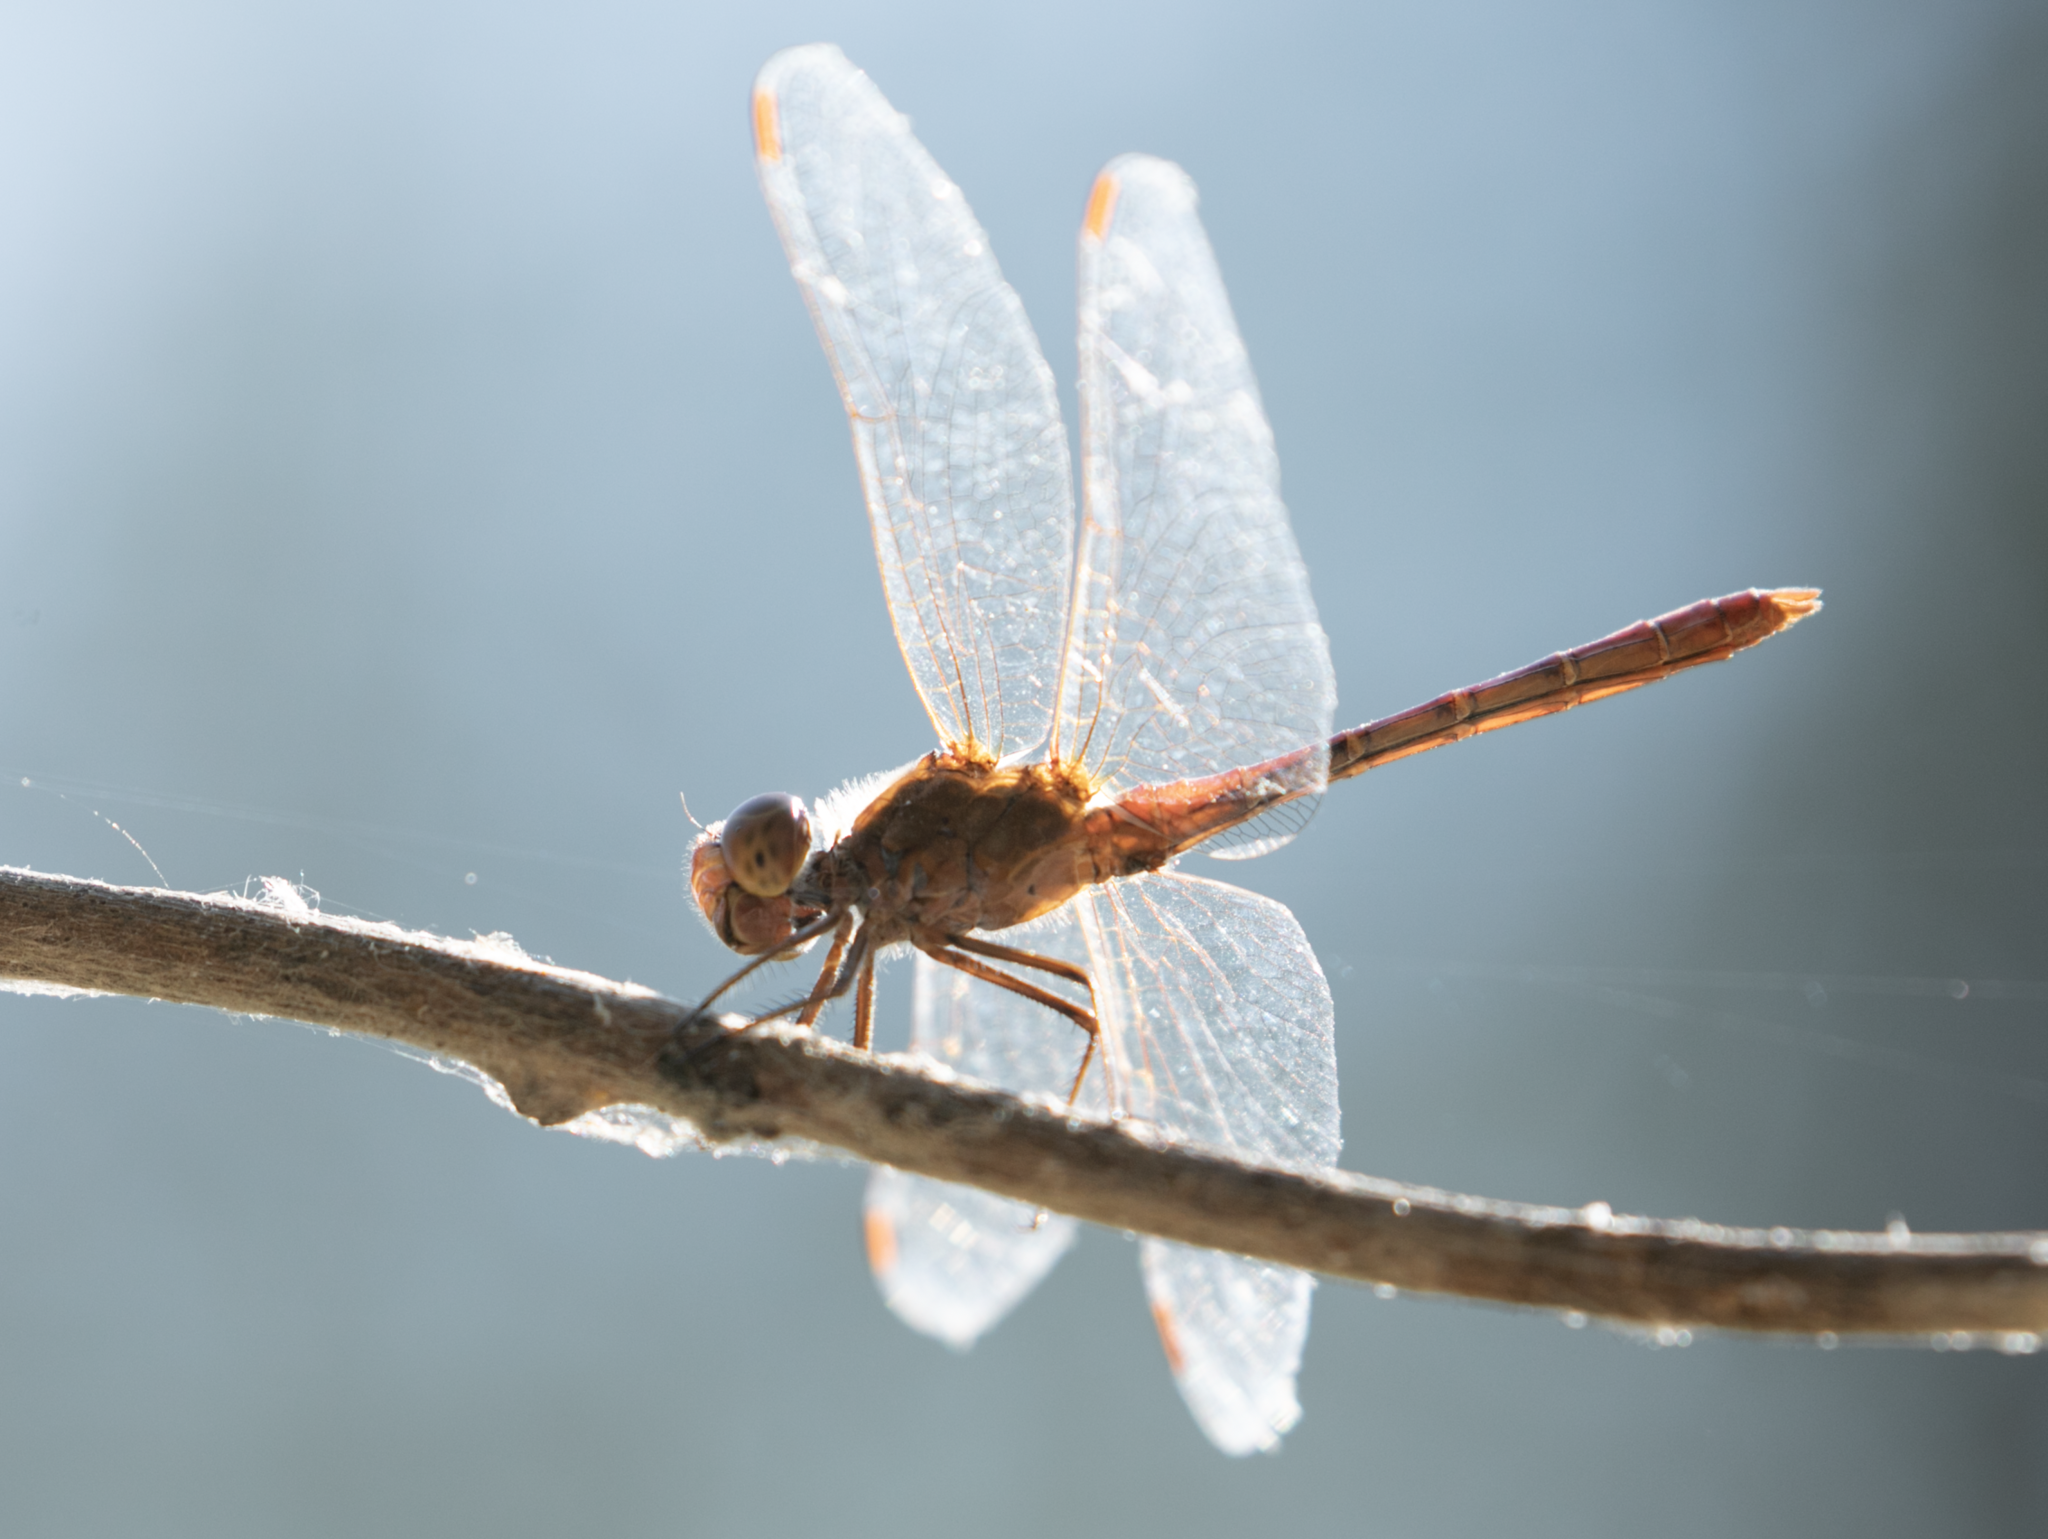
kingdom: Animalia
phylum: Arthropoda
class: Insecta
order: Odonata
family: Libellulidae
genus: Sympetrum
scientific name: Sympetrum meridionale
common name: Southern darter
